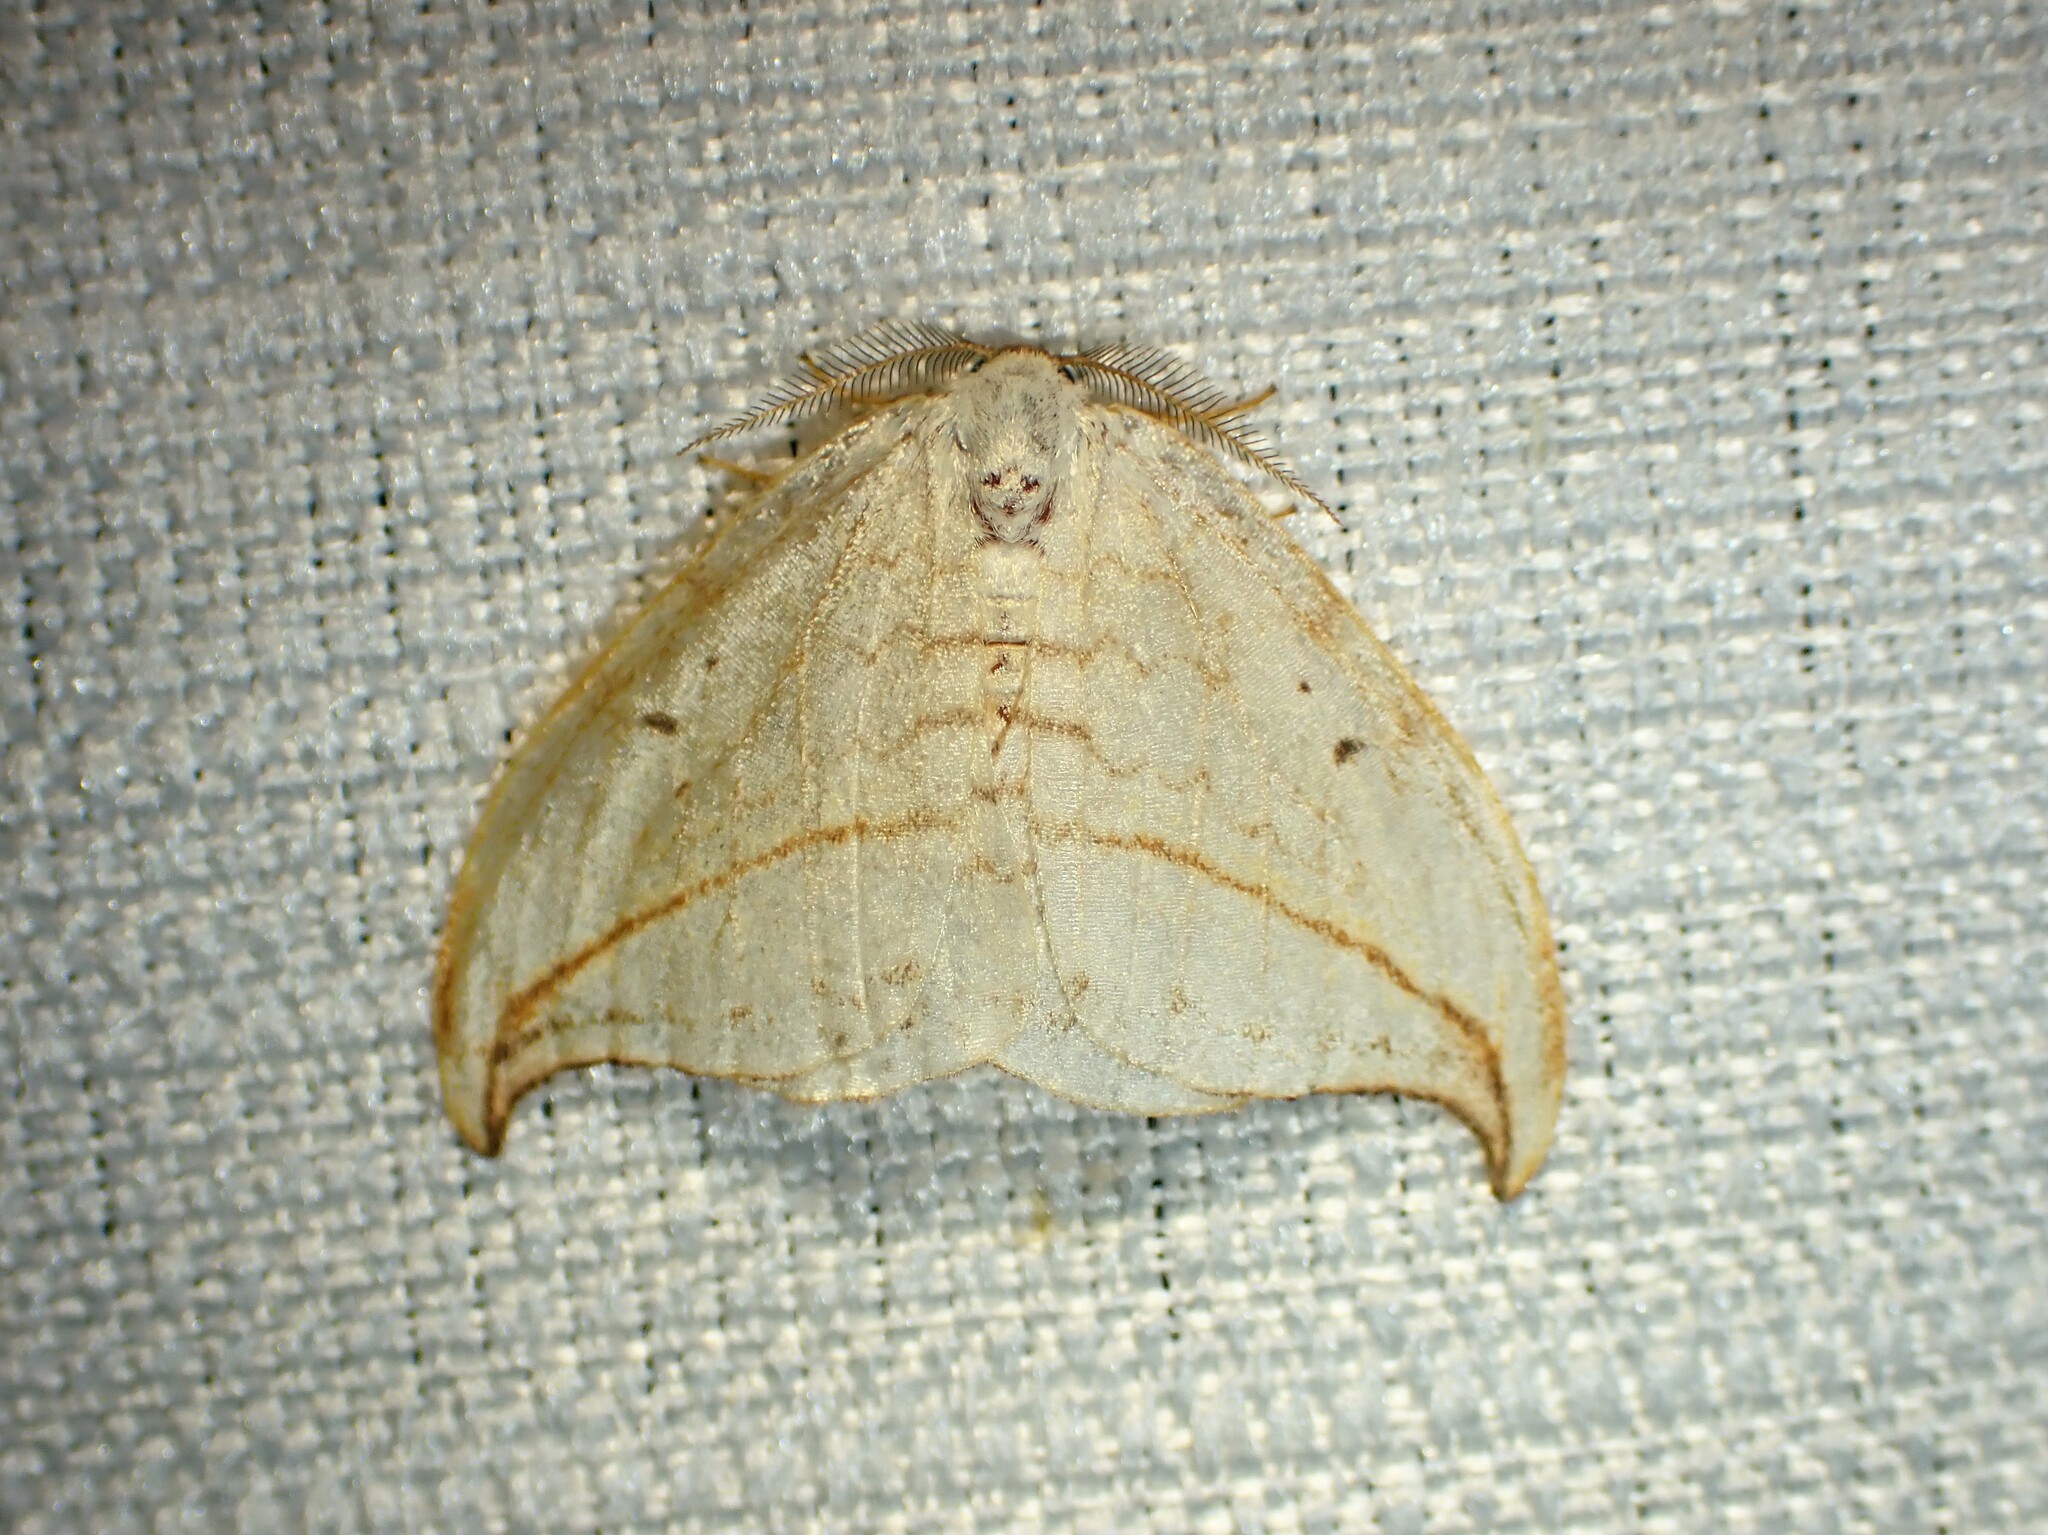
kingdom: Animalia
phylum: Arthropoda
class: Insecta
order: Lepidoptera
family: Drepanidae
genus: Drepana
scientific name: Drepana arcuata
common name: Arched hooktip moth
